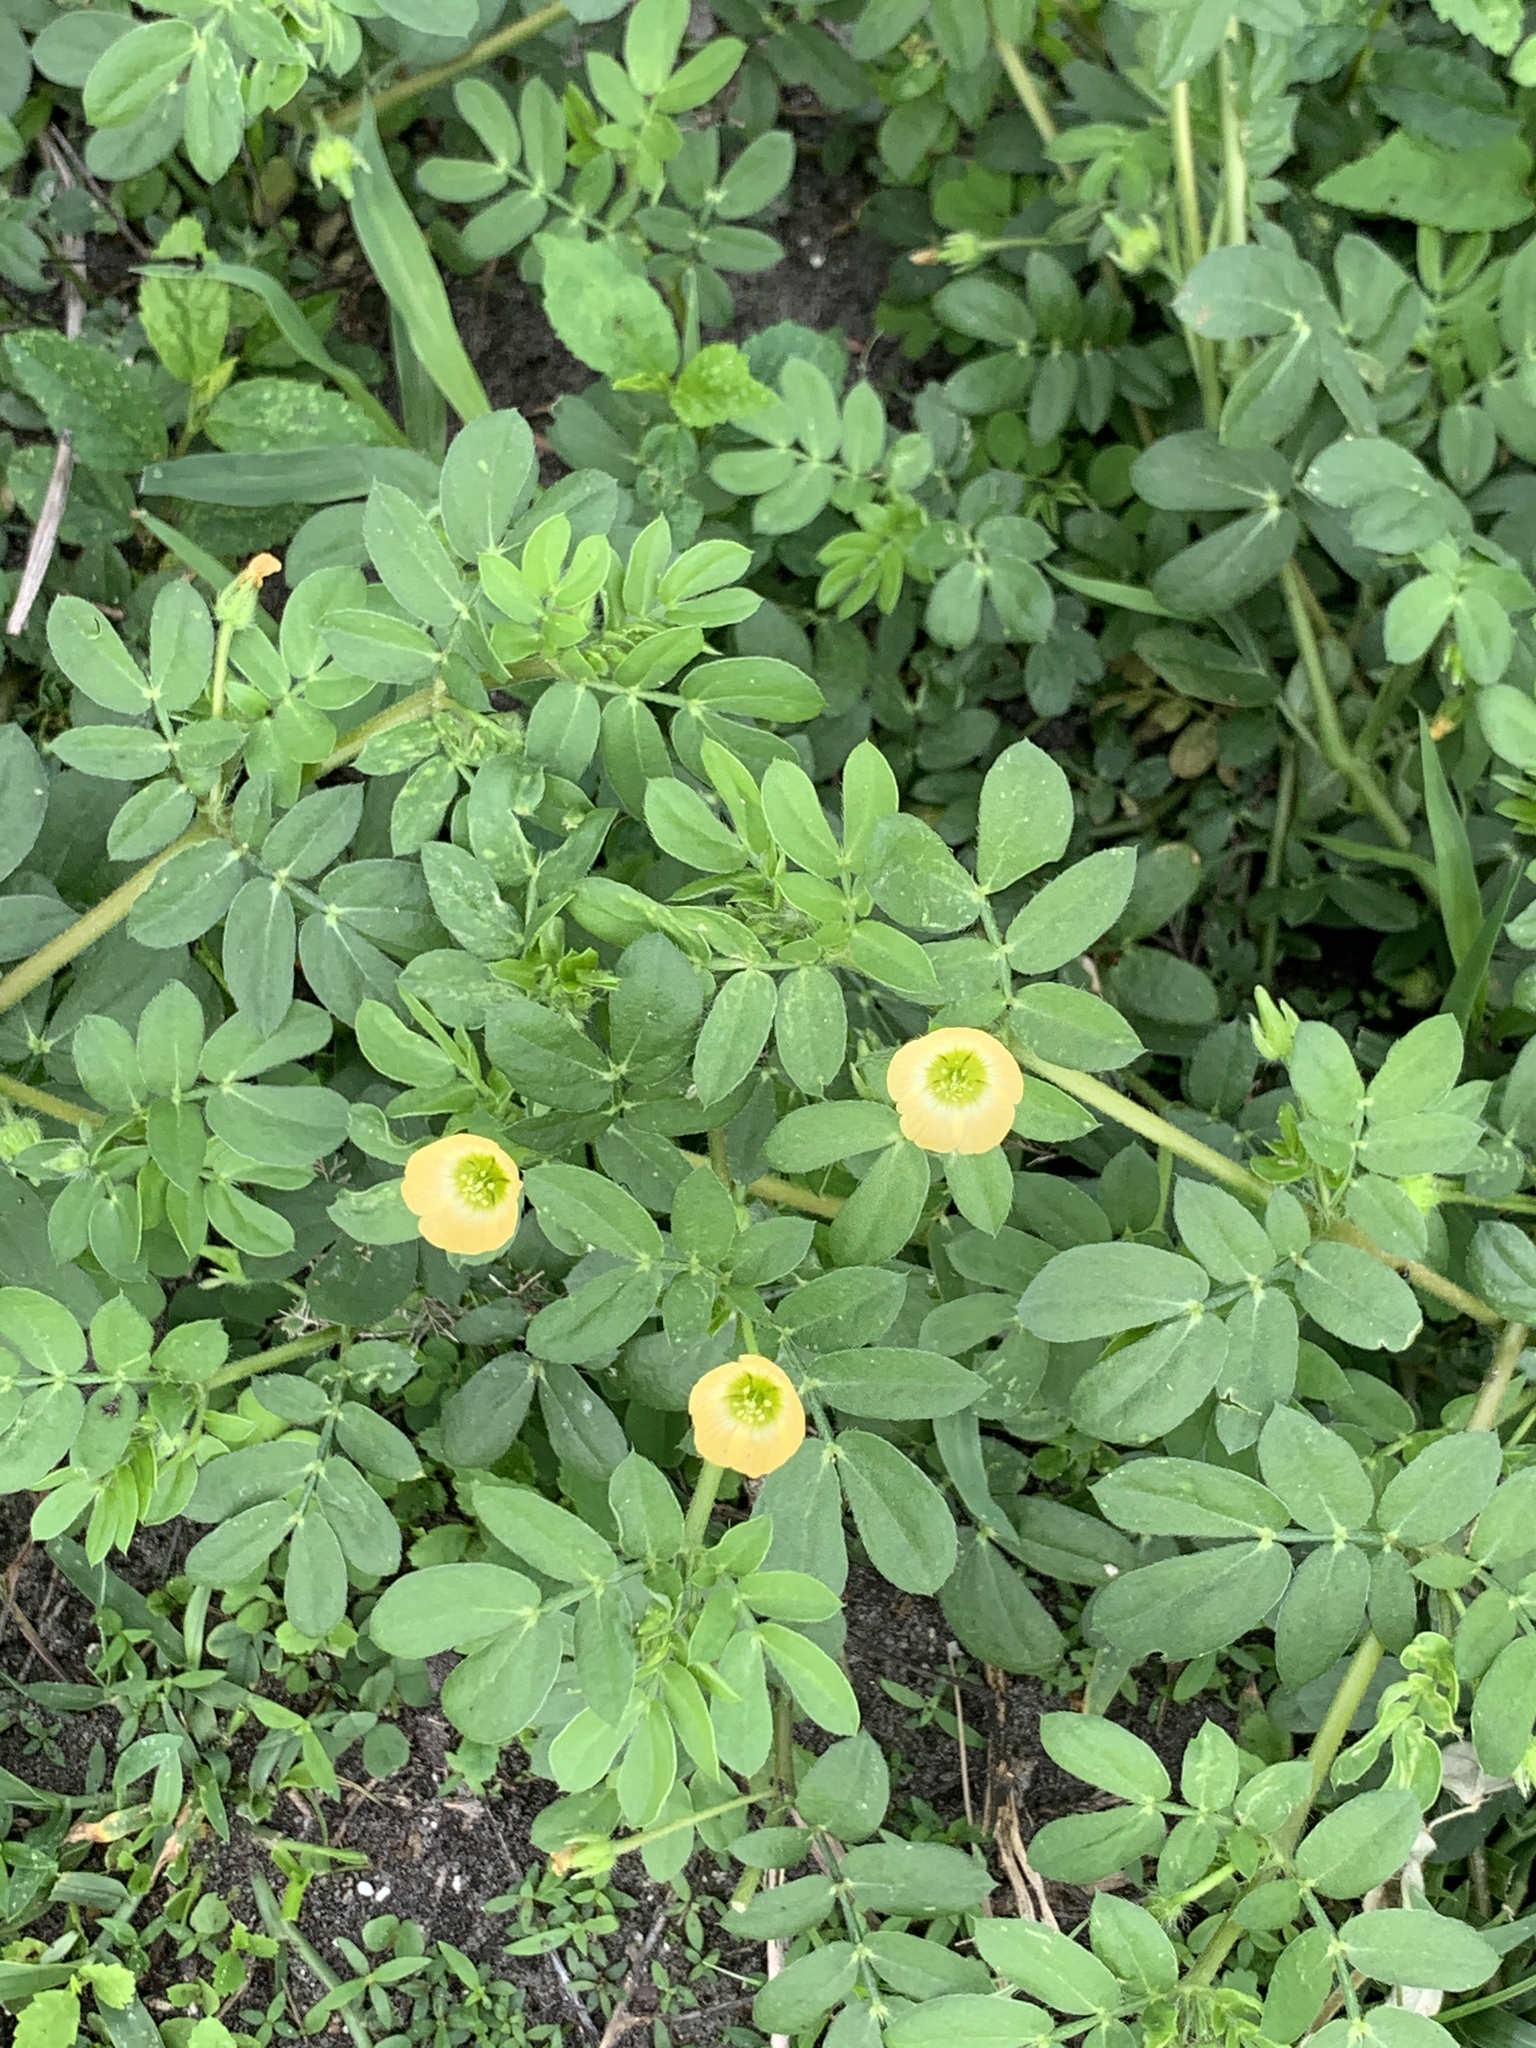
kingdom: Plantae
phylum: Tracheophyta
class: Magnoliopsida
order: Zygophyllales
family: Zygophyllaceae
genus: Kallstroemia
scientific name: Kallstroemia maxima
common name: Big caltropa
